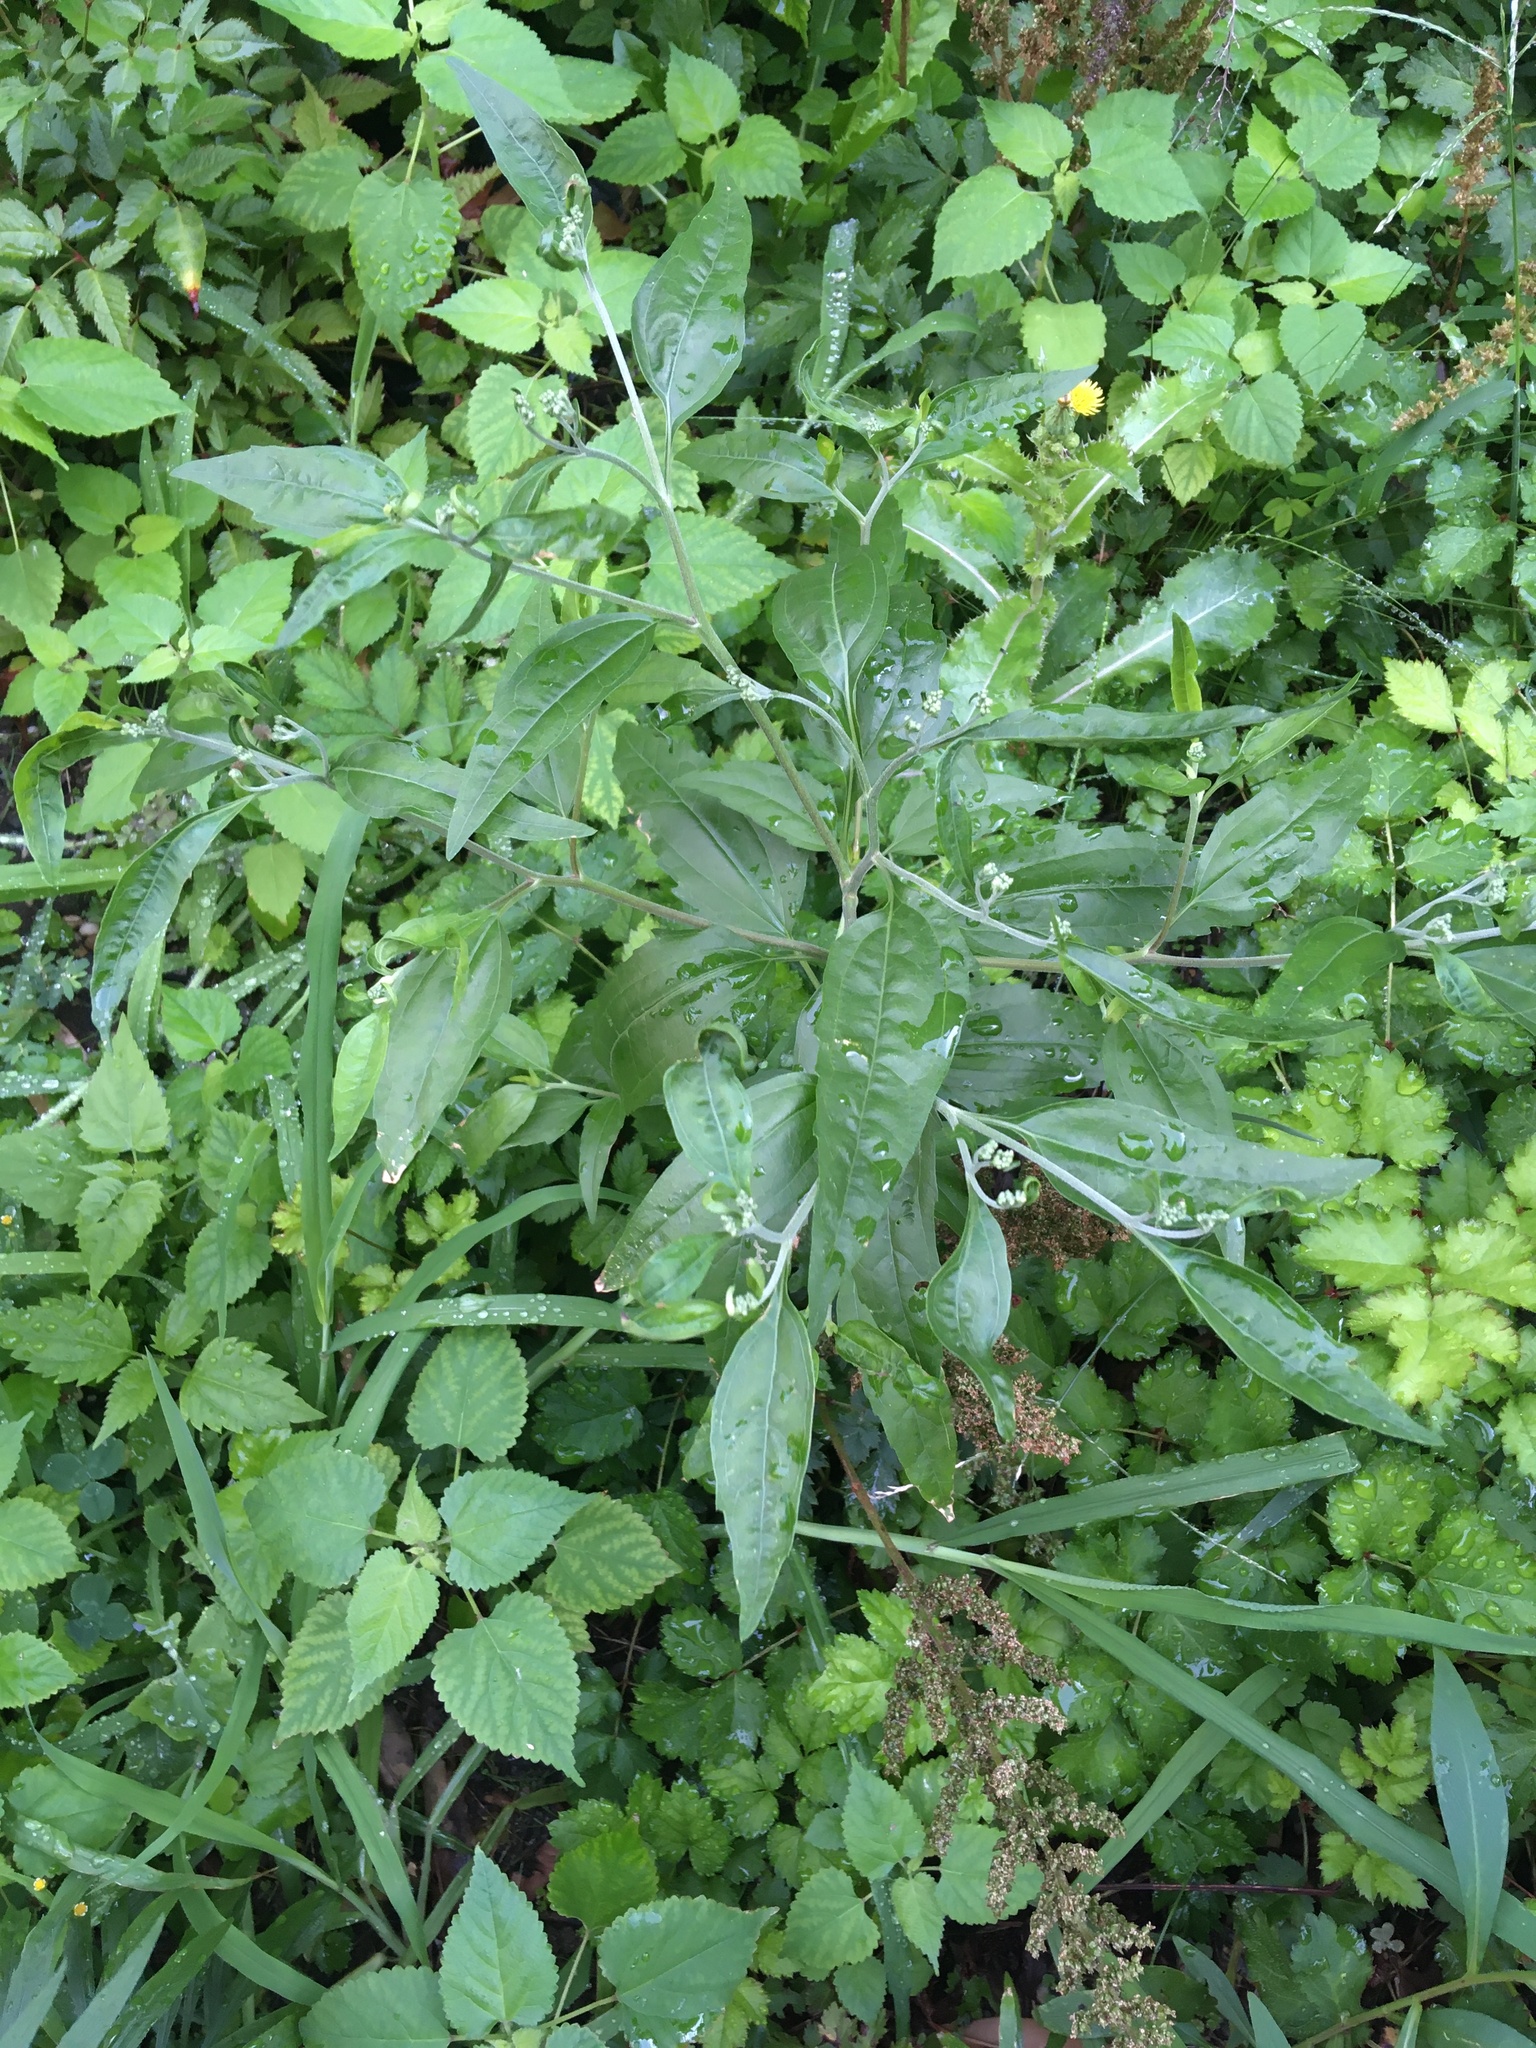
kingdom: Plantae
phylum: Tracheophyta
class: Magnoliopsida
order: Asterales
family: Asteraceae
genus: Eupatorium
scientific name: Eupatorium serotinum
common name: Late boneset
